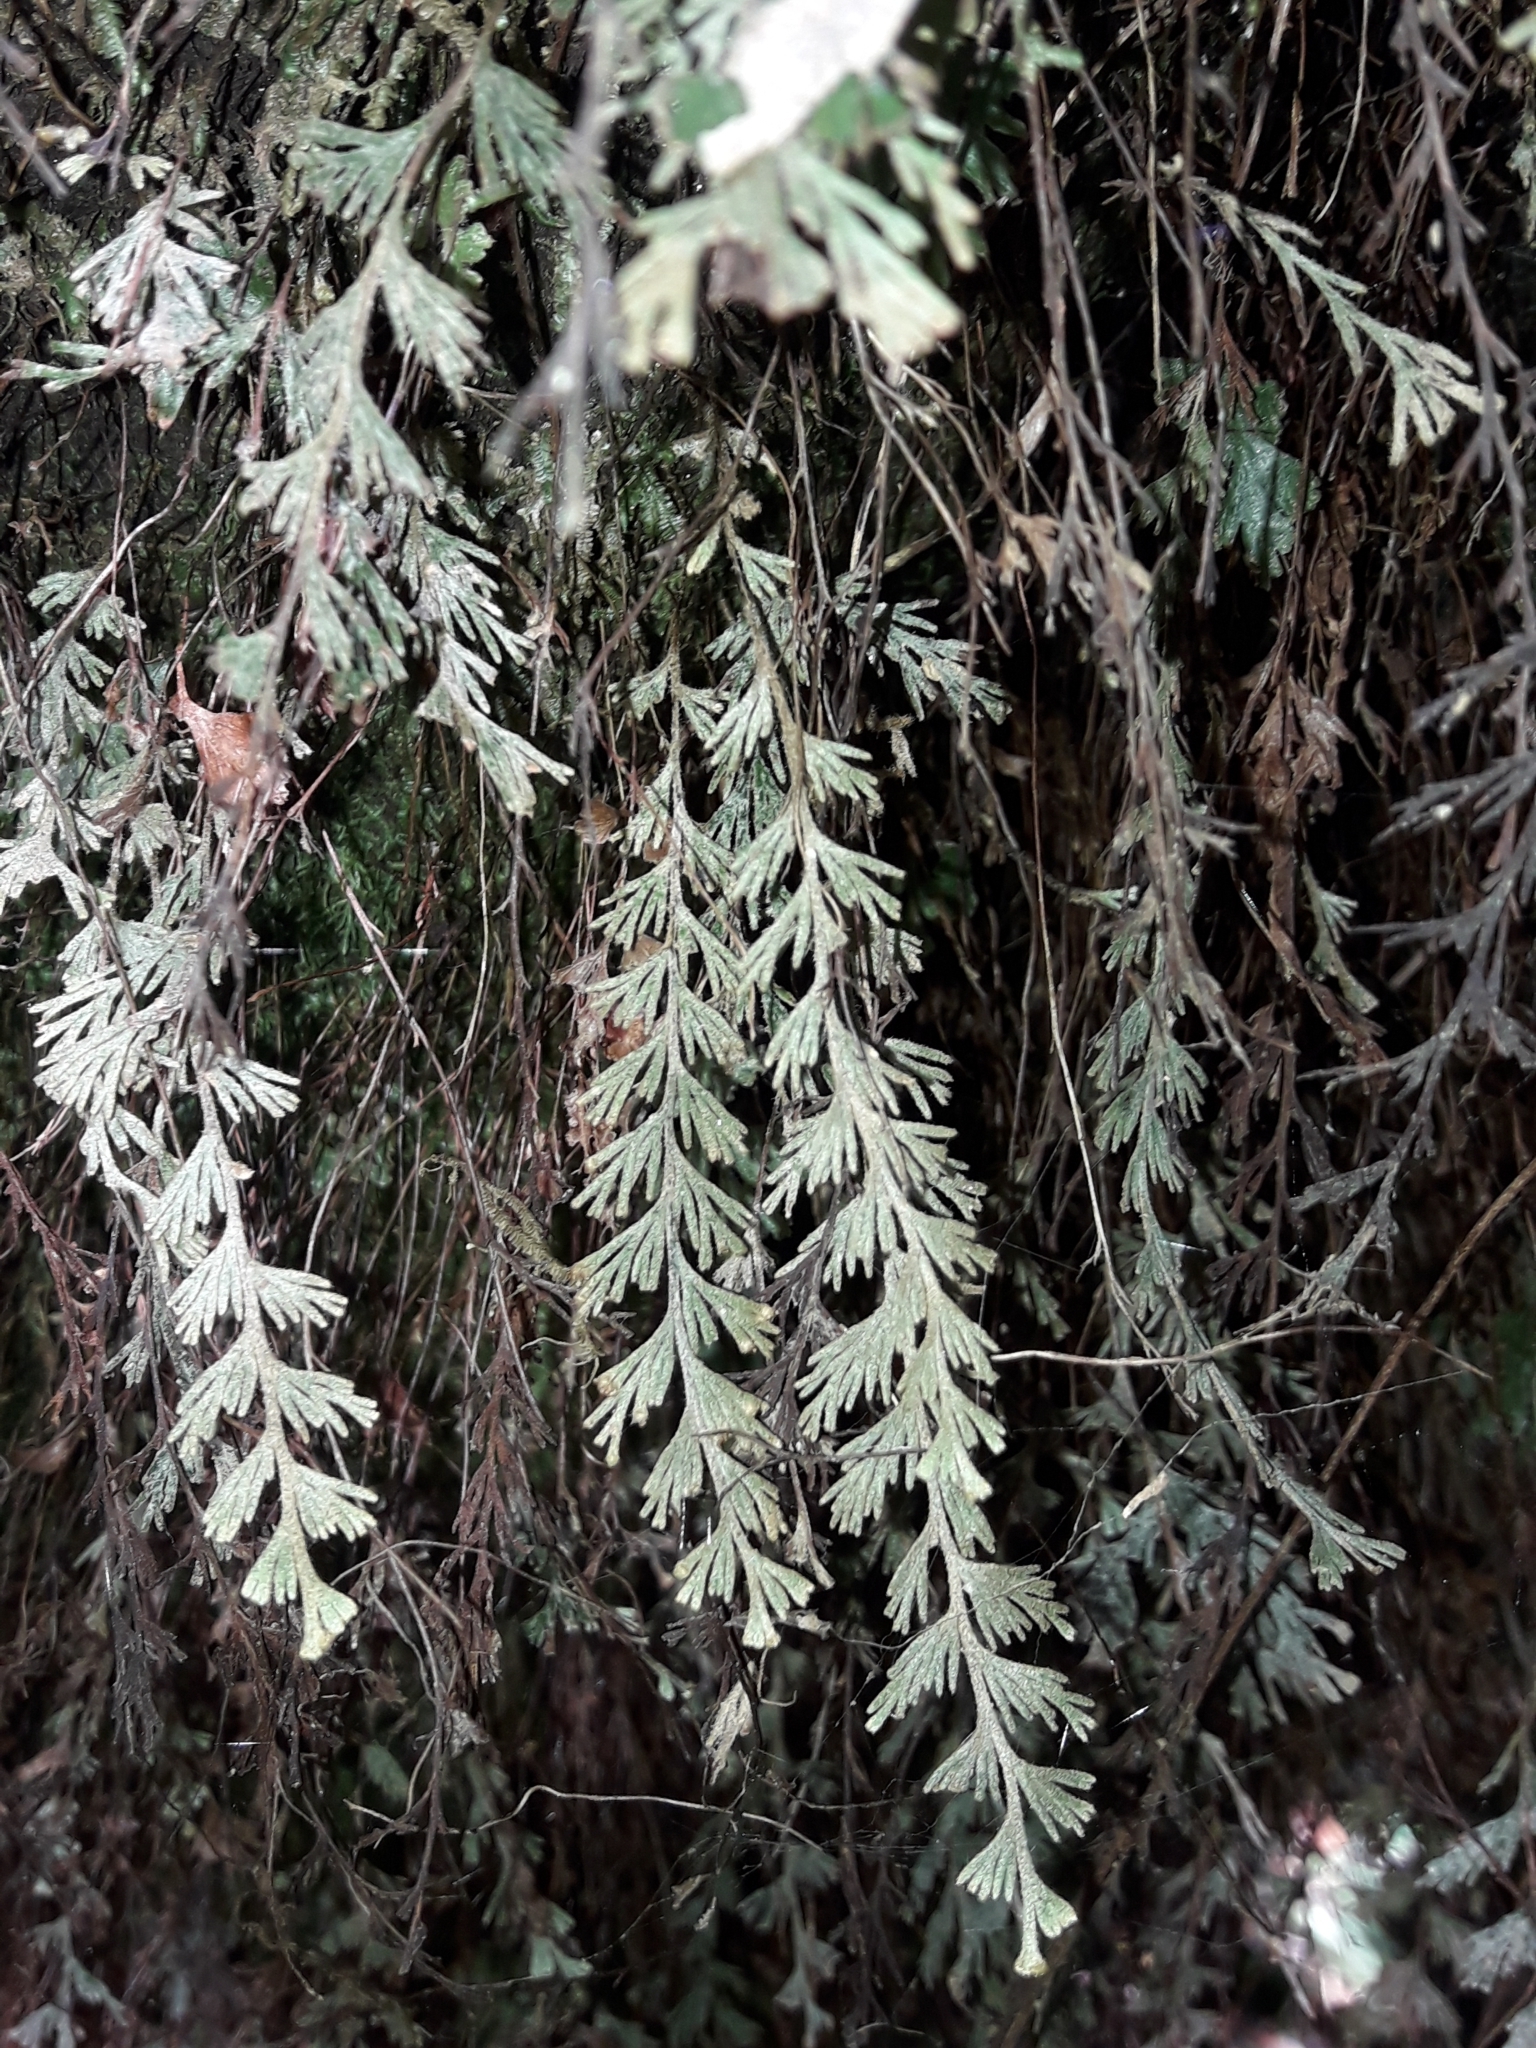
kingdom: Plantae
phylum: Tracheophyta
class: Polypodiopsida
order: Hymenophyllales
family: Hymenophyllaceae
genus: Hymenophyllum
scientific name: Hymenophyllum malingii
